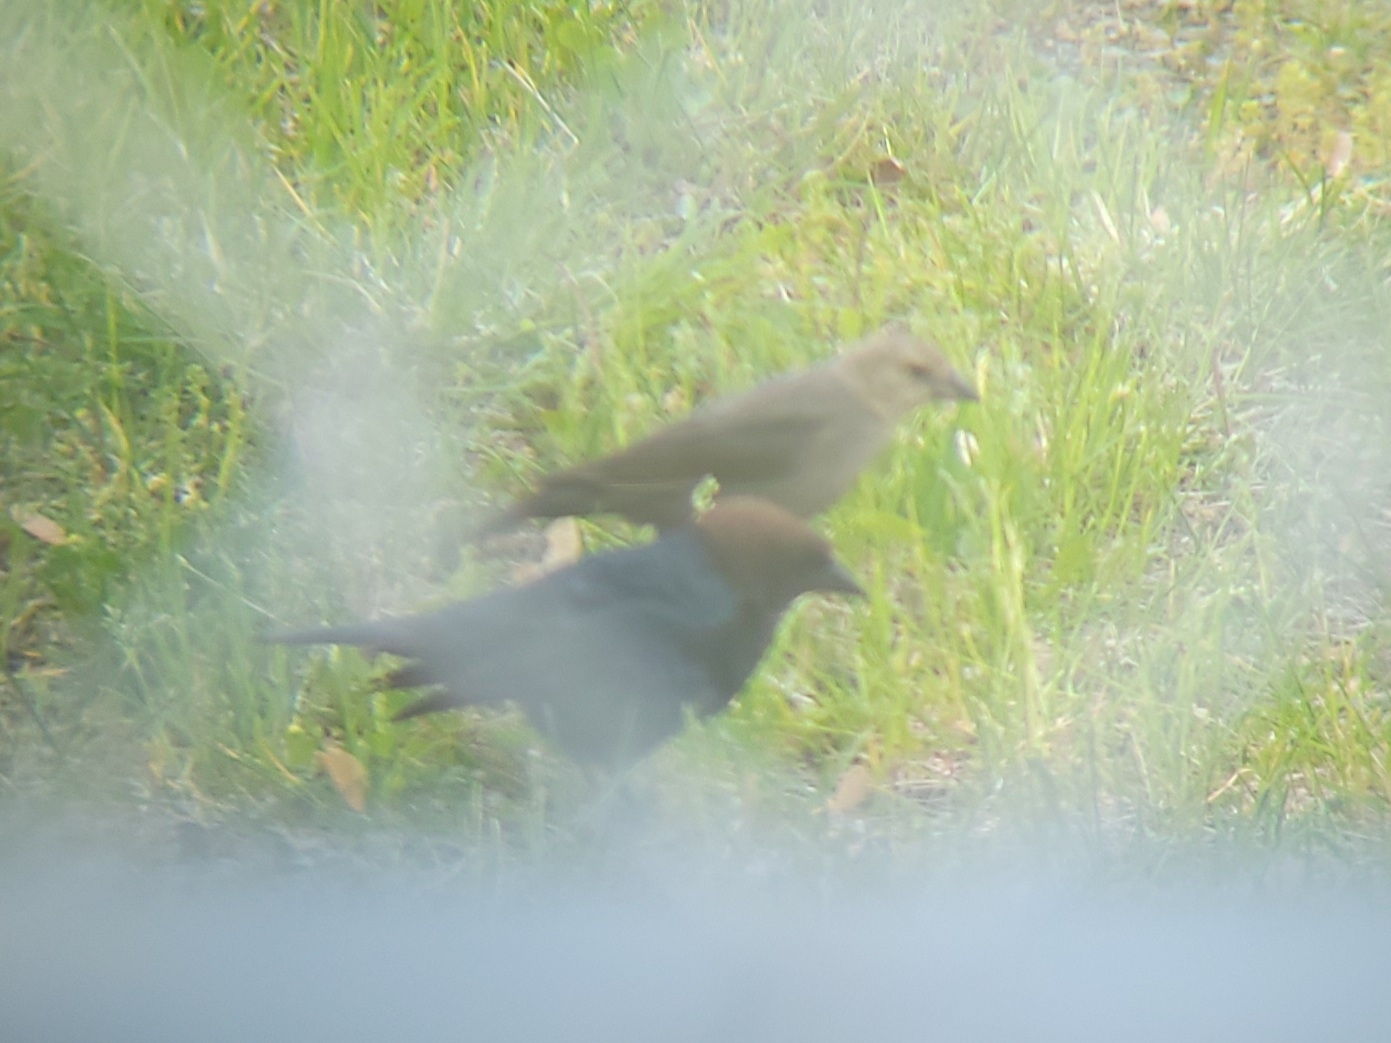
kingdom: Animalia
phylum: Chordata
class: Aves
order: Passeriformes
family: Icteridae
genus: Molothrus
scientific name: Molothrus ater
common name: Brown-headed cowbird
